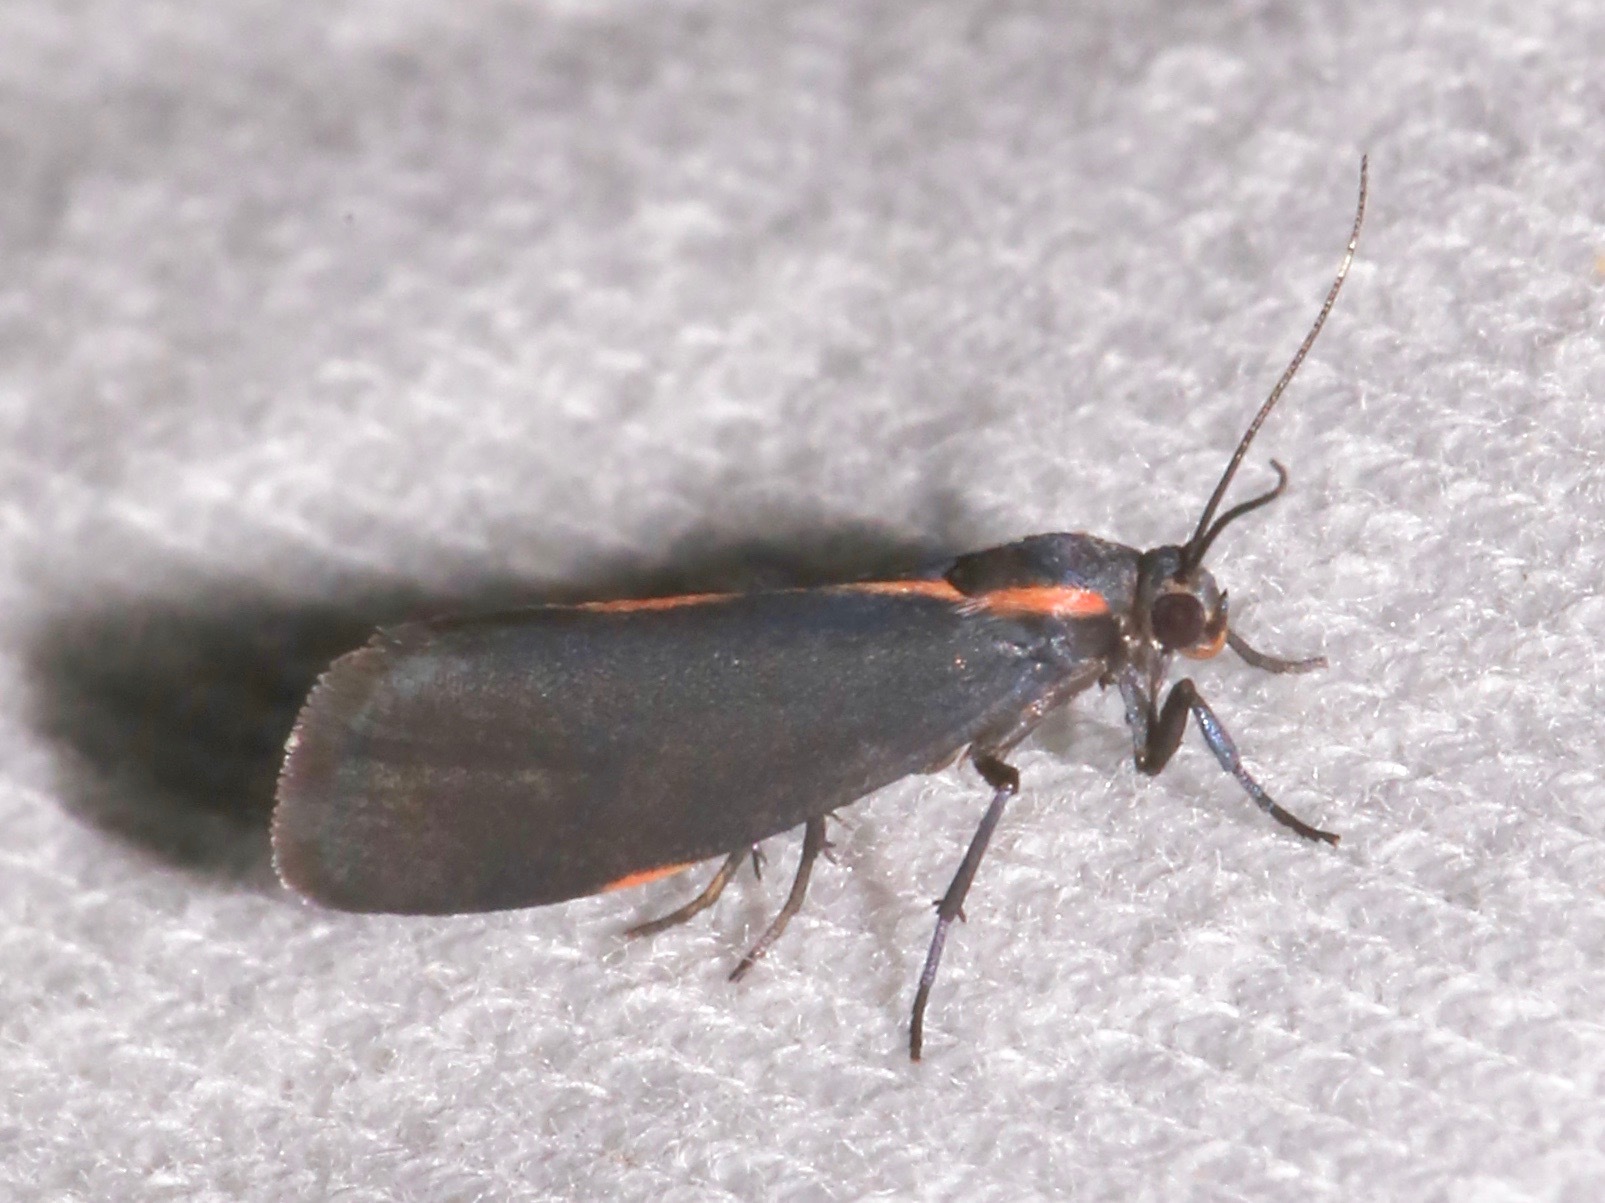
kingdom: Animalia
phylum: Arthropoda
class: Insecta
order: Lepidoptera
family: Erebidae
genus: Cisthene
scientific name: Cisthene juanita
